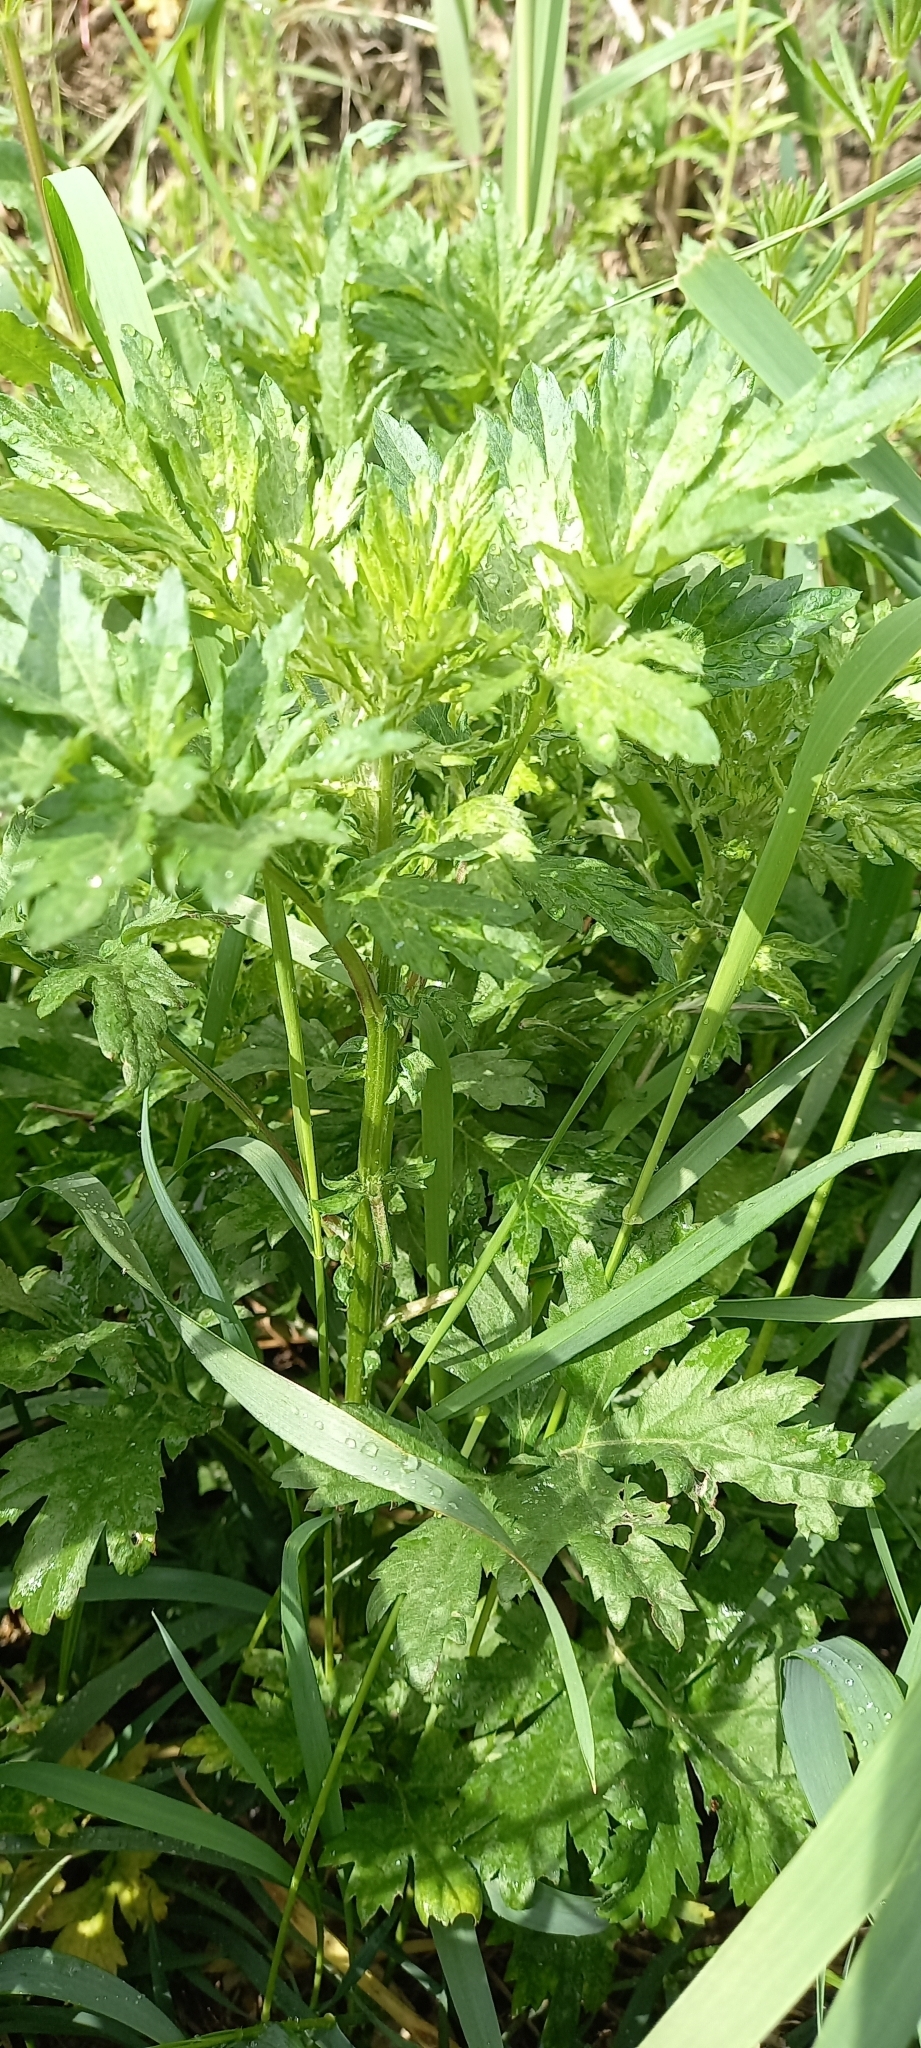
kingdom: Plantae
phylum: Tracheophyta
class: Magnoliopsida
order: Asterales
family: Asteraceae
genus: Artemisia
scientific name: Artemisia vulgaris
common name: Mugwort
